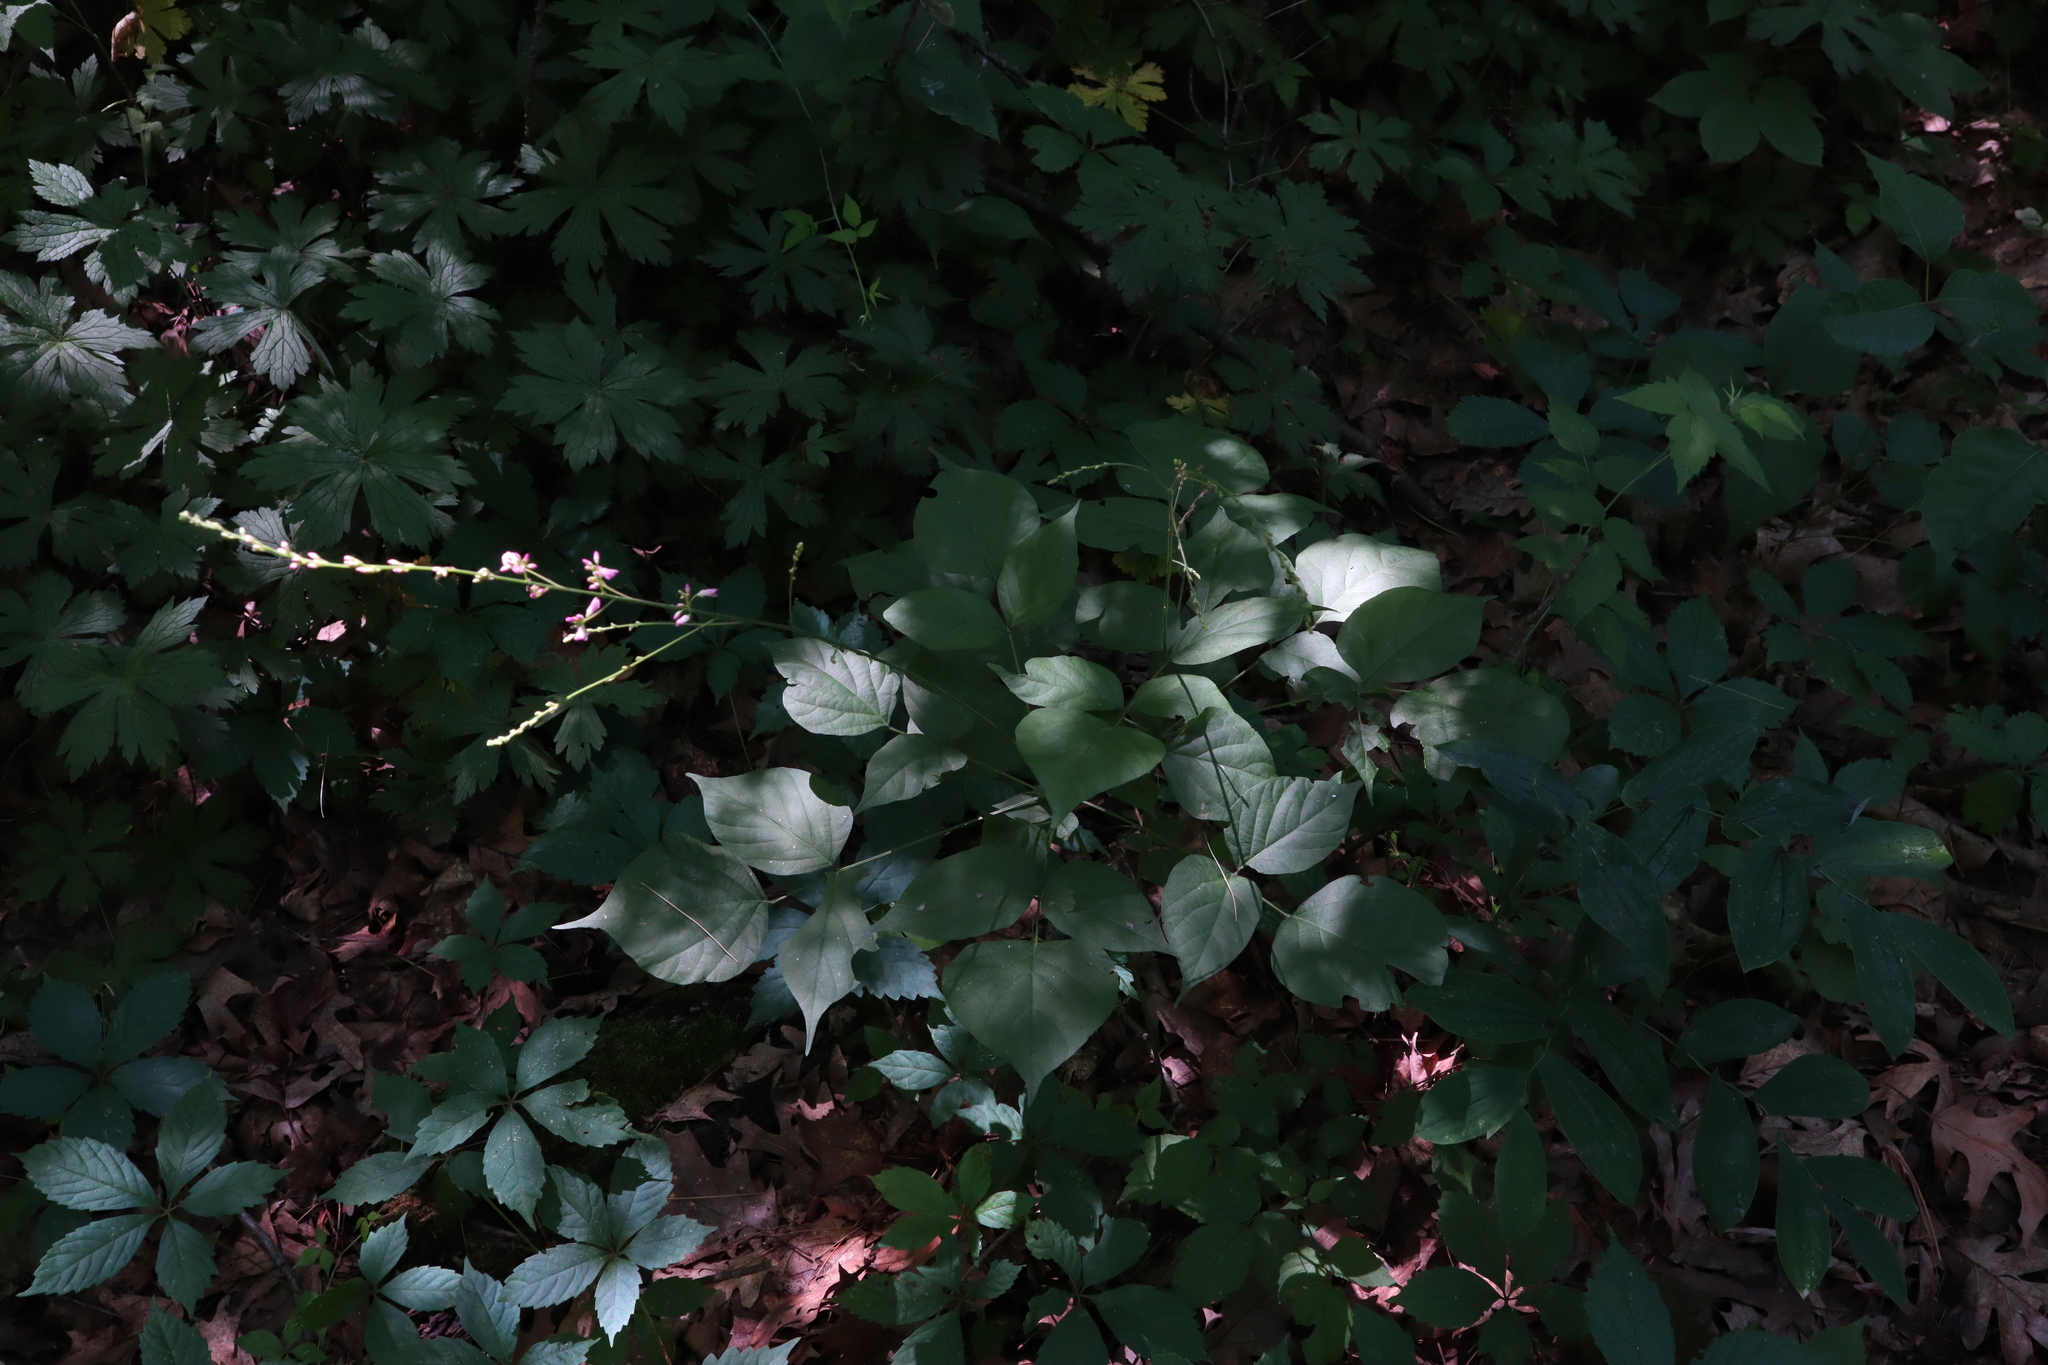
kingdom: Plantae
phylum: Tracheophyta
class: Magnoliopsida
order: Fabales
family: Fabaceae
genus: Hylodesmum
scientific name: Hylodesmum glutinosum
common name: Clustered-leaved tick-trefoil
